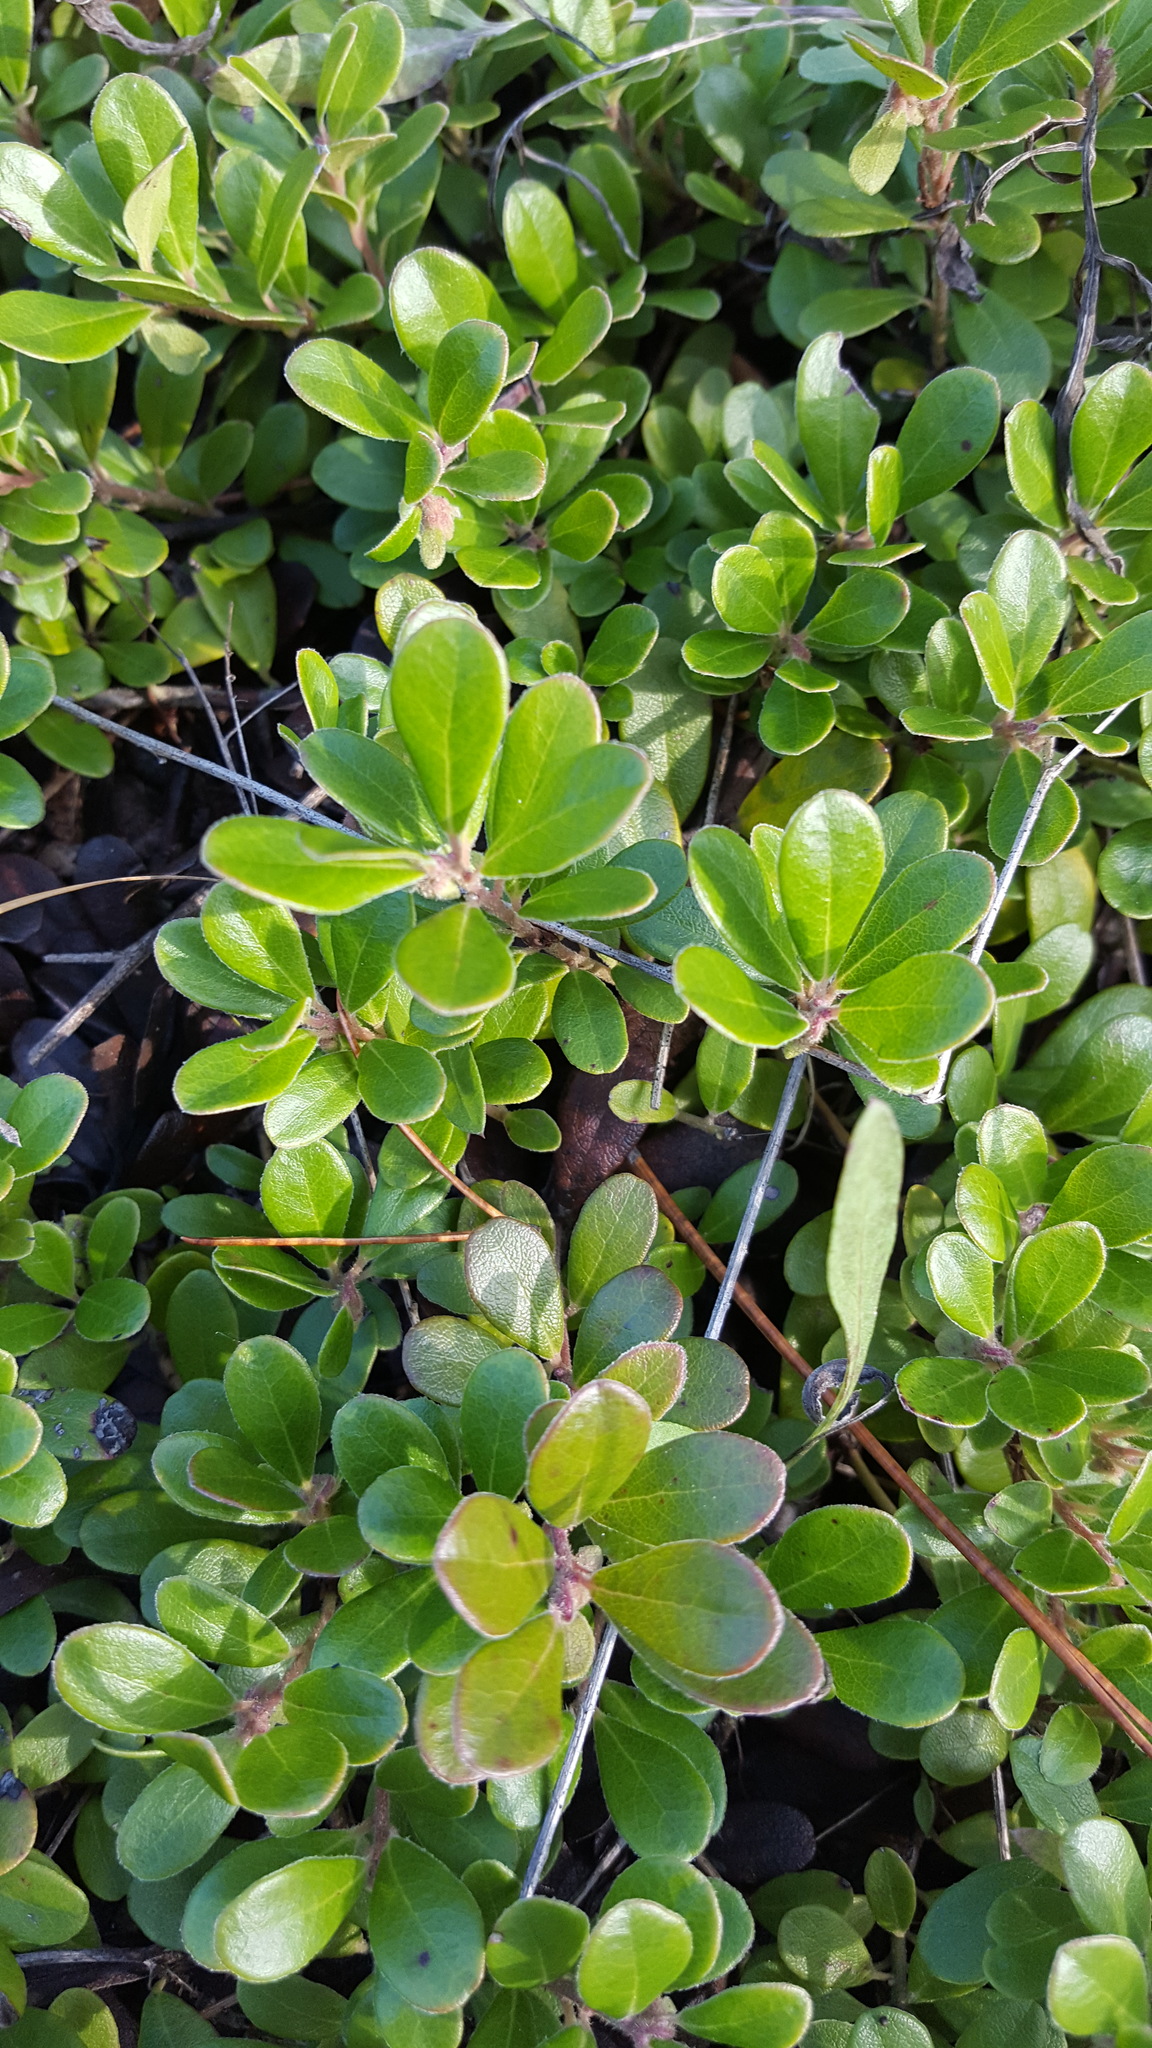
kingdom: Plantae
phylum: Tracheophyta
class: Magnoliopsida
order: Ericales
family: Ericaceae
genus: Arctostaphylos
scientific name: Arctostaphylos uva-ursi
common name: Bearberry
